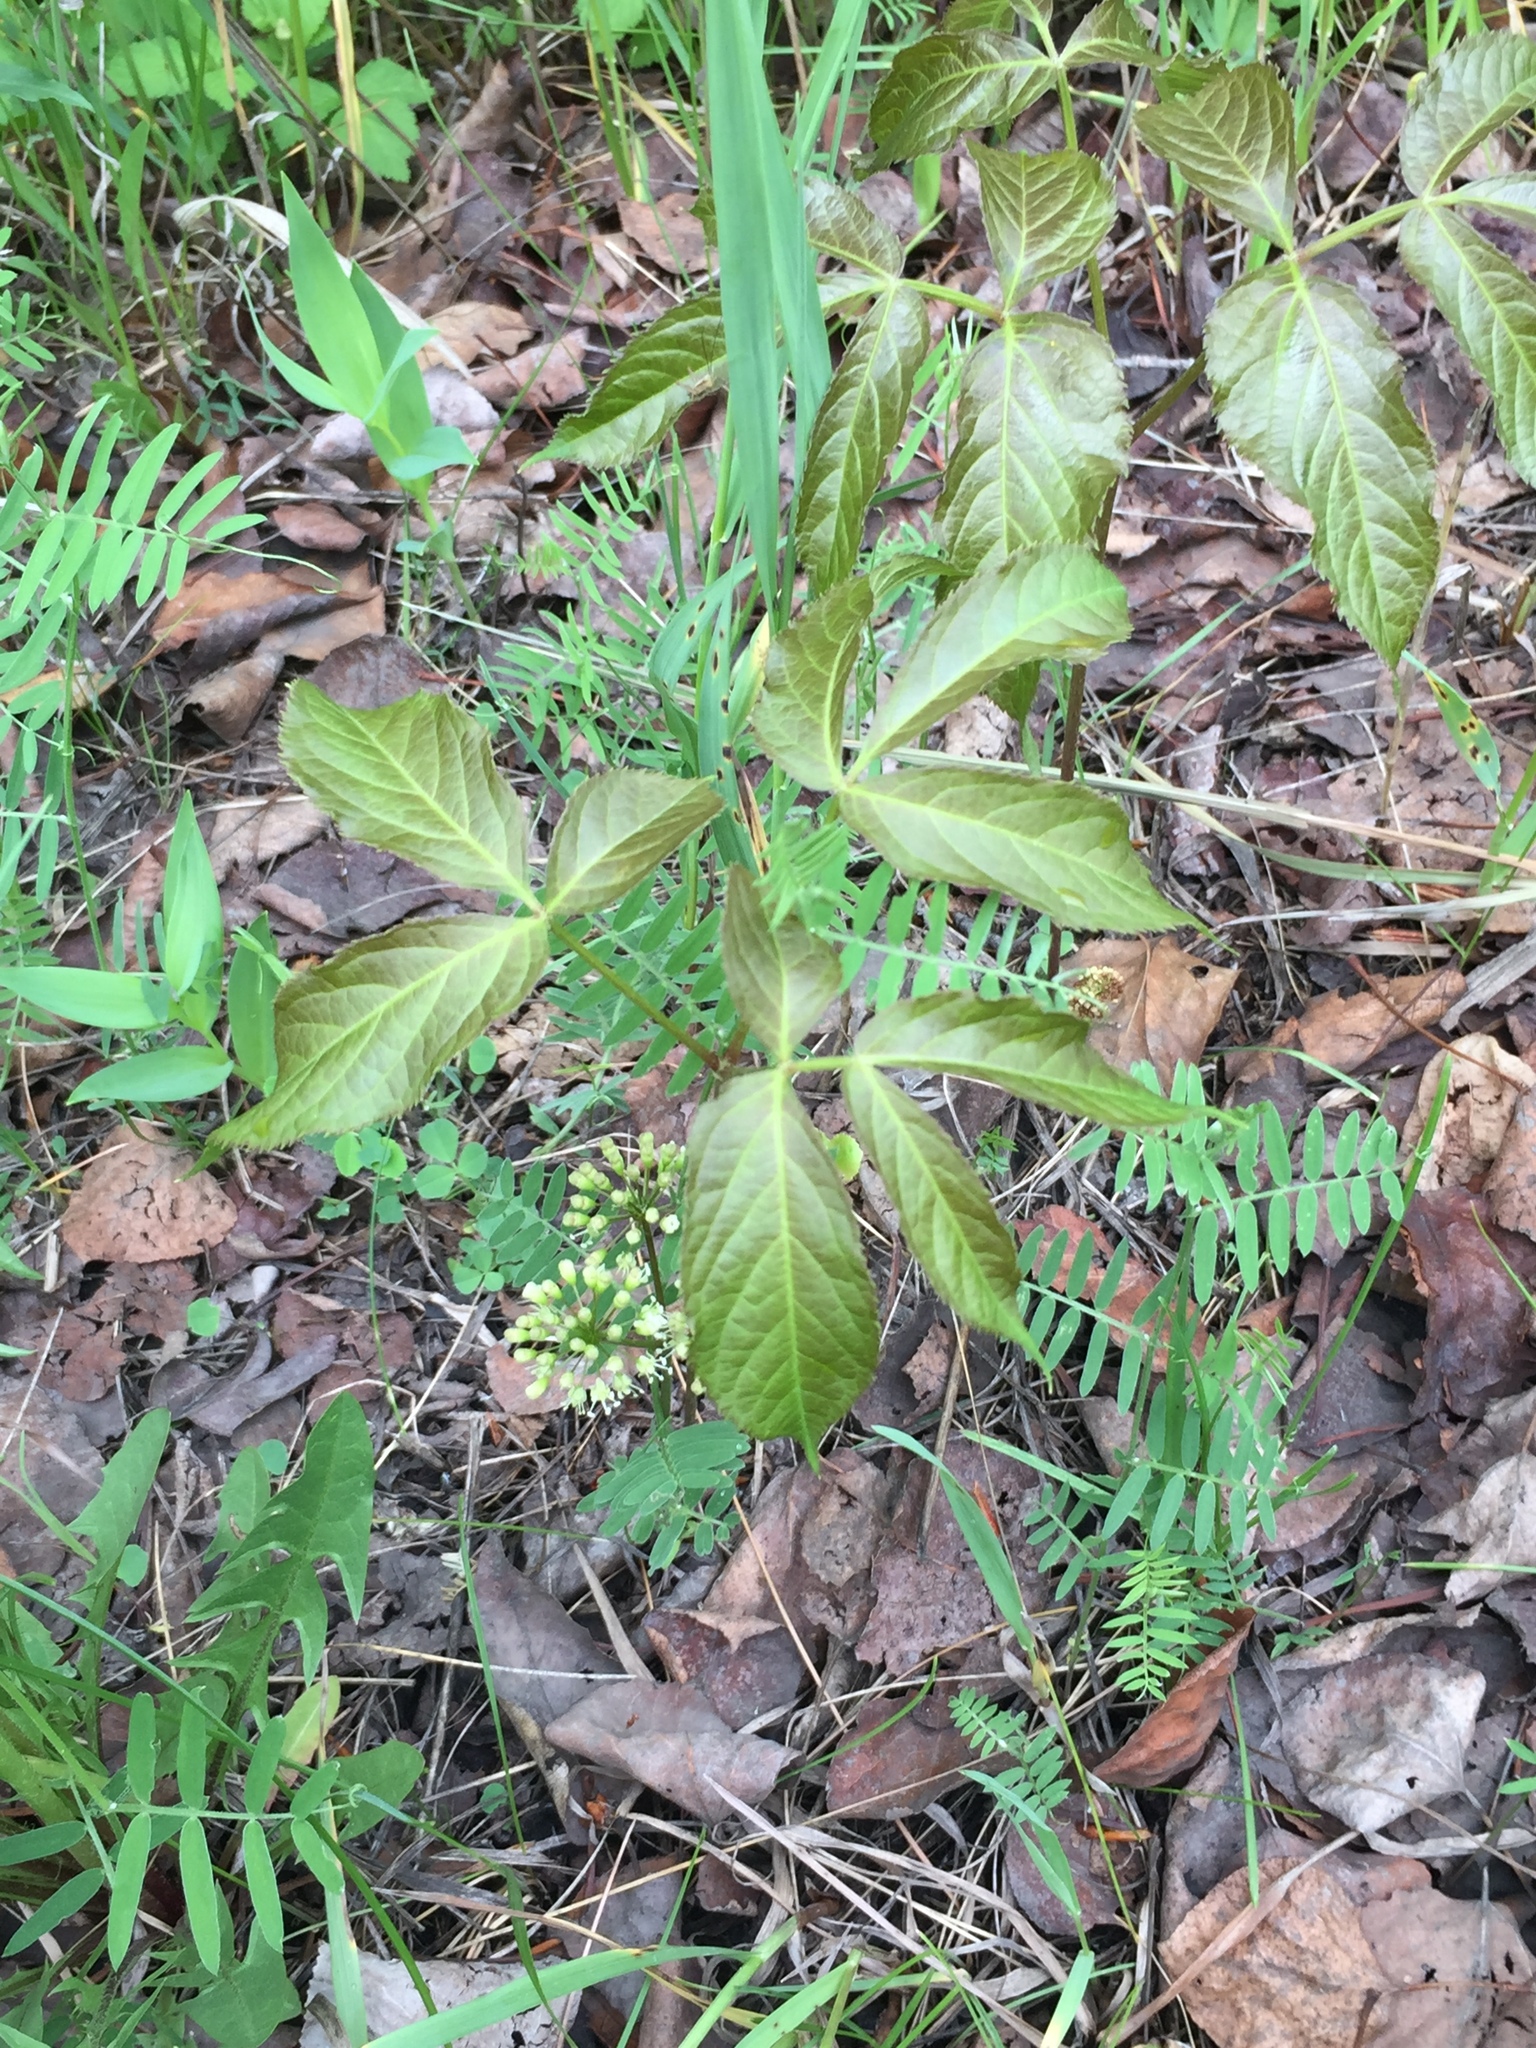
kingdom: Plantae
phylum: Tracheophyta
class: Magnoliopsida
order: Apiales
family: Araliaceae
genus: Aralia
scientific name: Aralia nudicaulis
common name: Wild sarsaparilla
